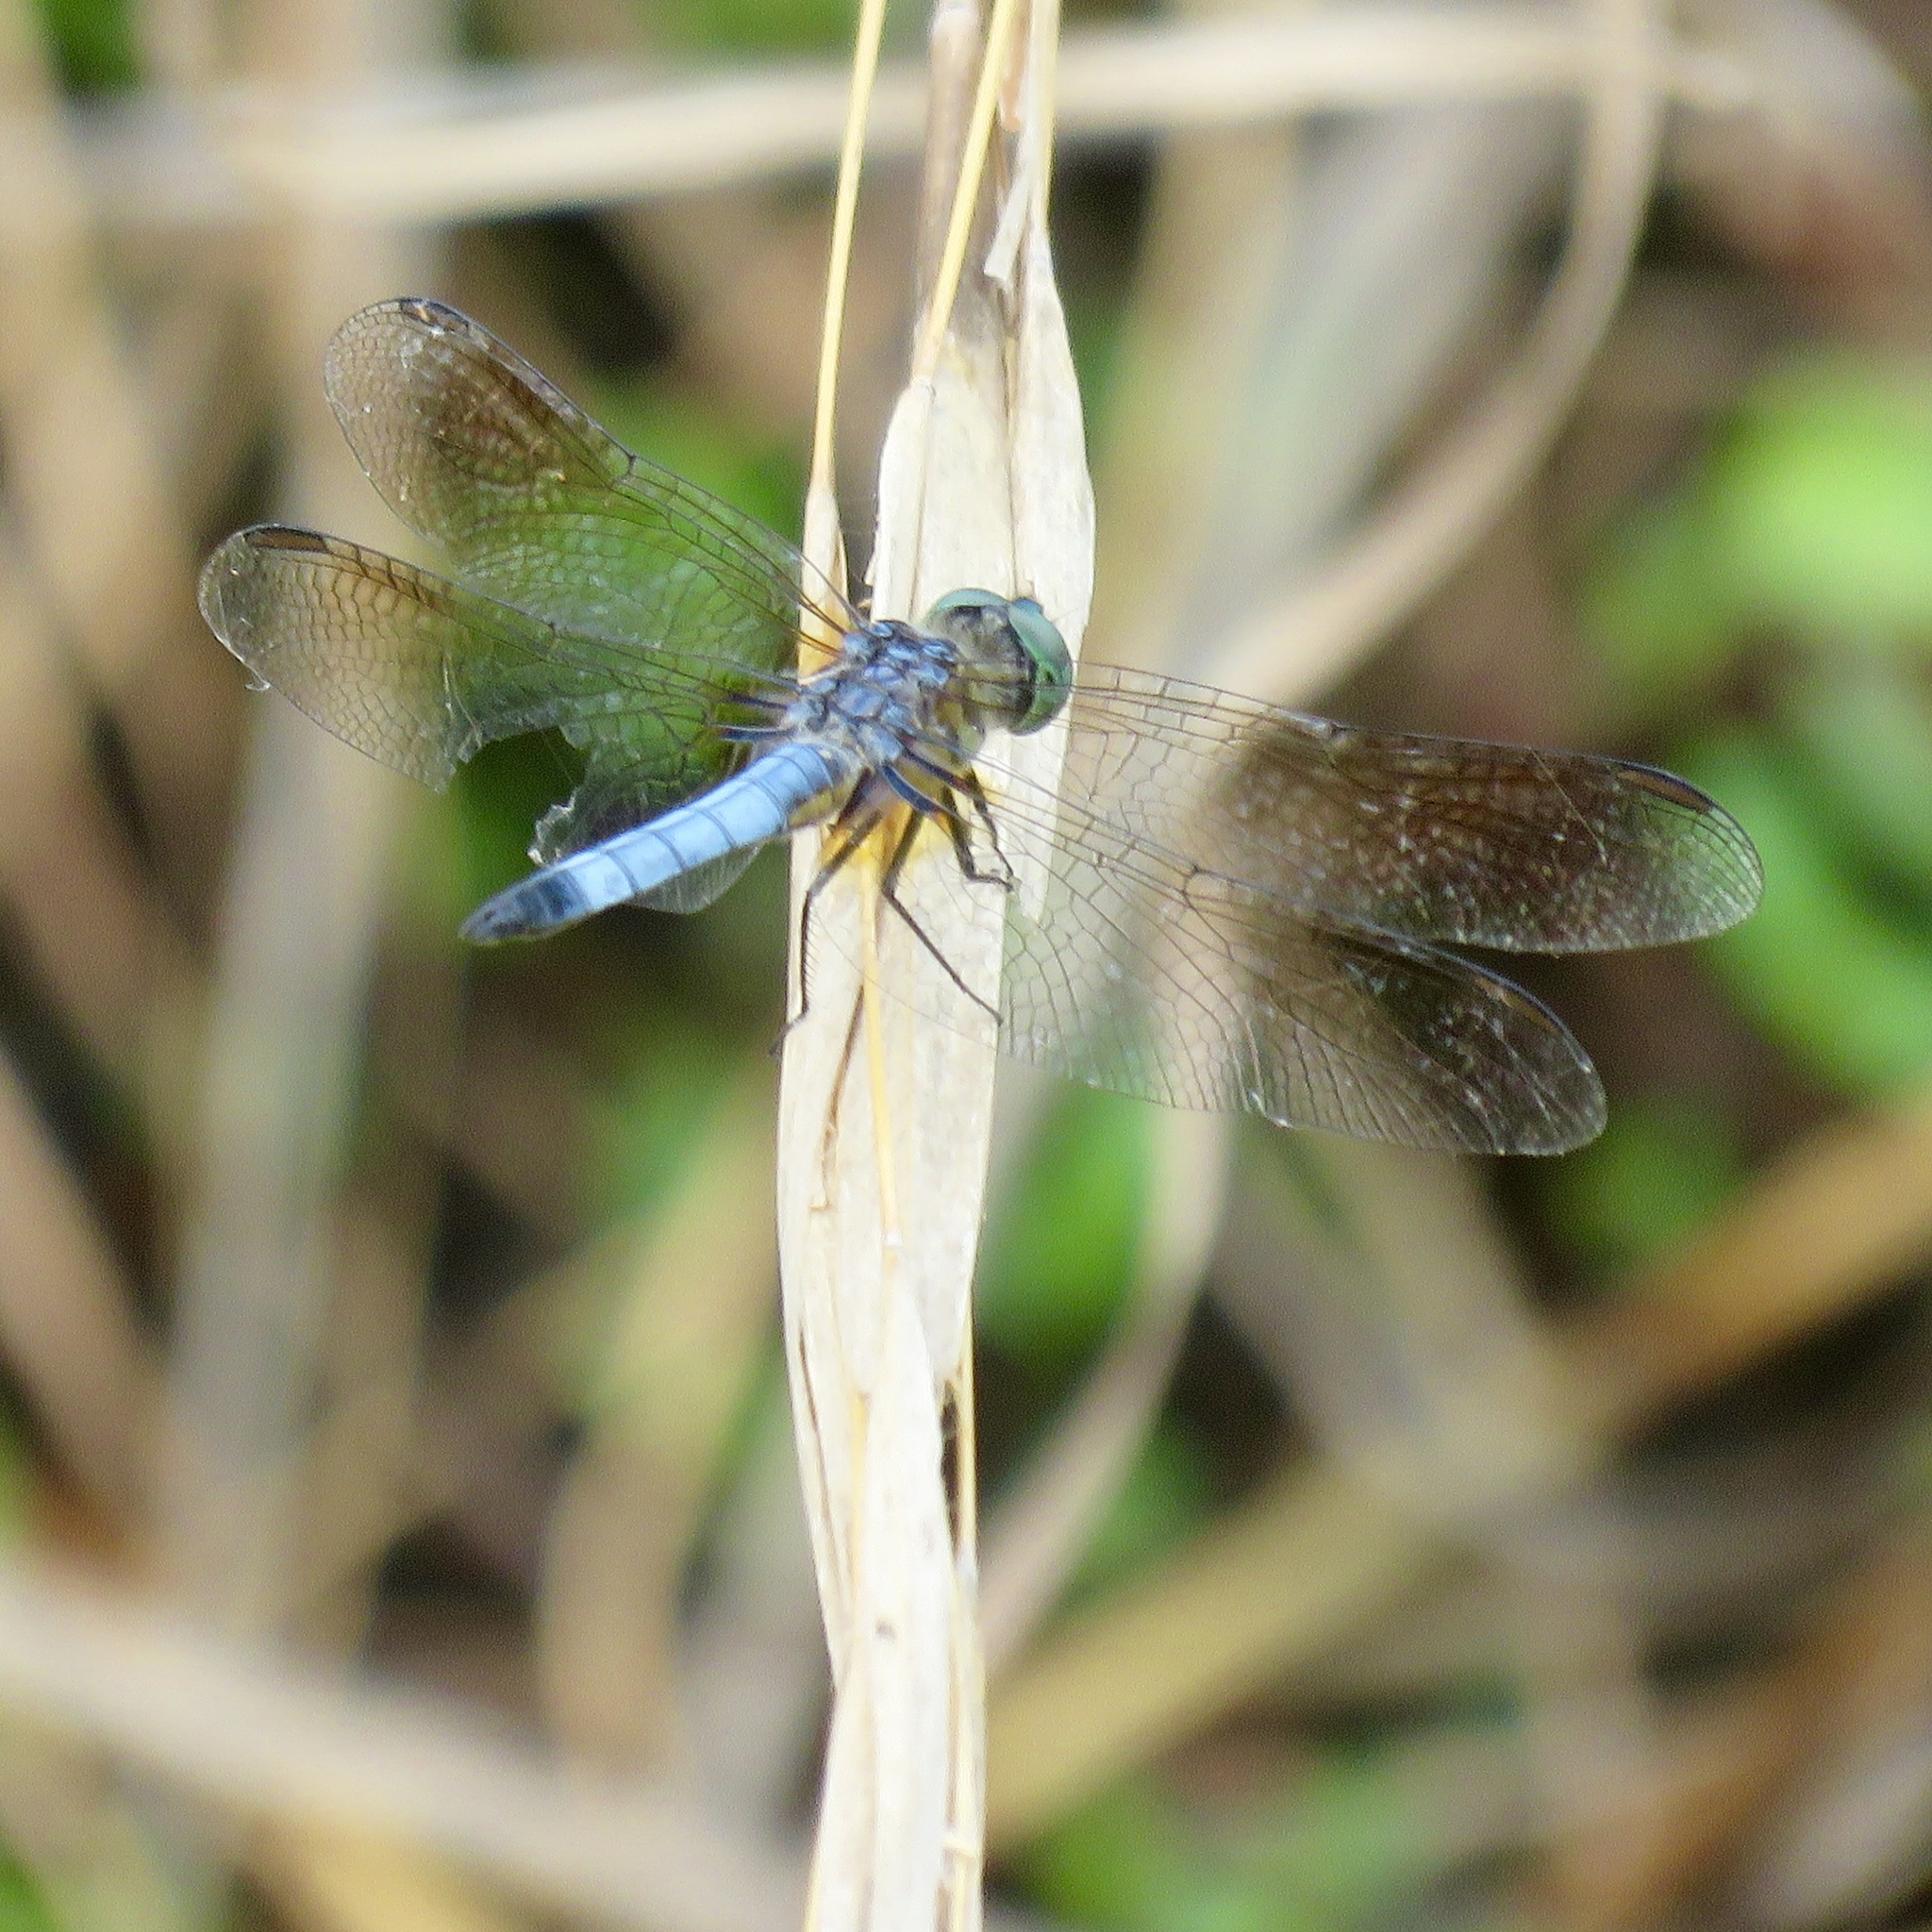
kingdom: Animalia
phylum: Arthropoda
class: Insecta
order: Odonata
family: Libellulidae
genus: Pachydiplax
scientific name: Pachydiplax longipennis
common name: Blue dasher
